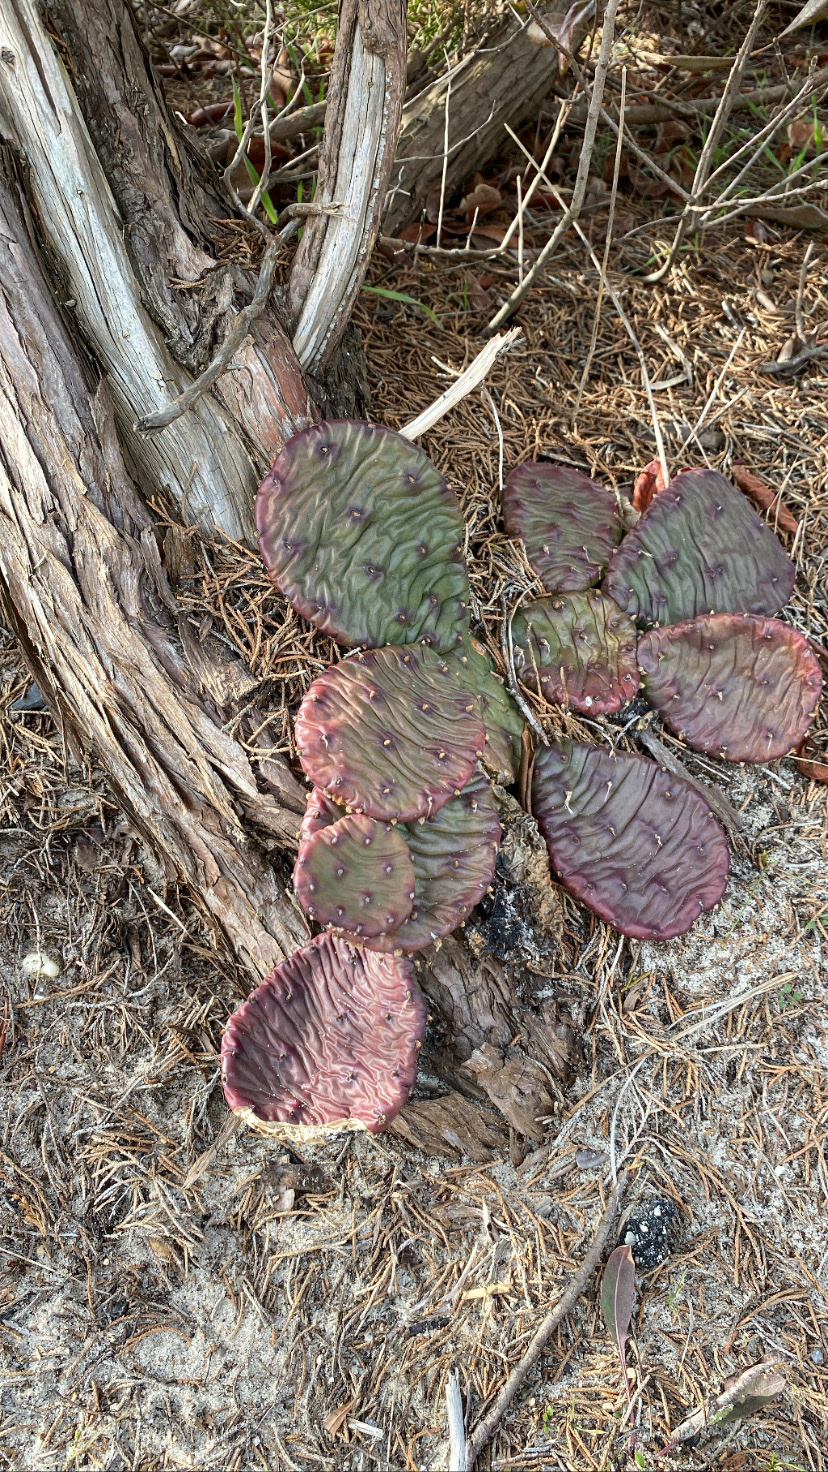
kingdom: Plantae
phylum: Tracheophyta
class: Magnoliopsida
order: Caryophyllales
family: Cactaceae
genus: Opuntia
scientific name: Opuntia humifusa
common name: Eastern prickly-pear
